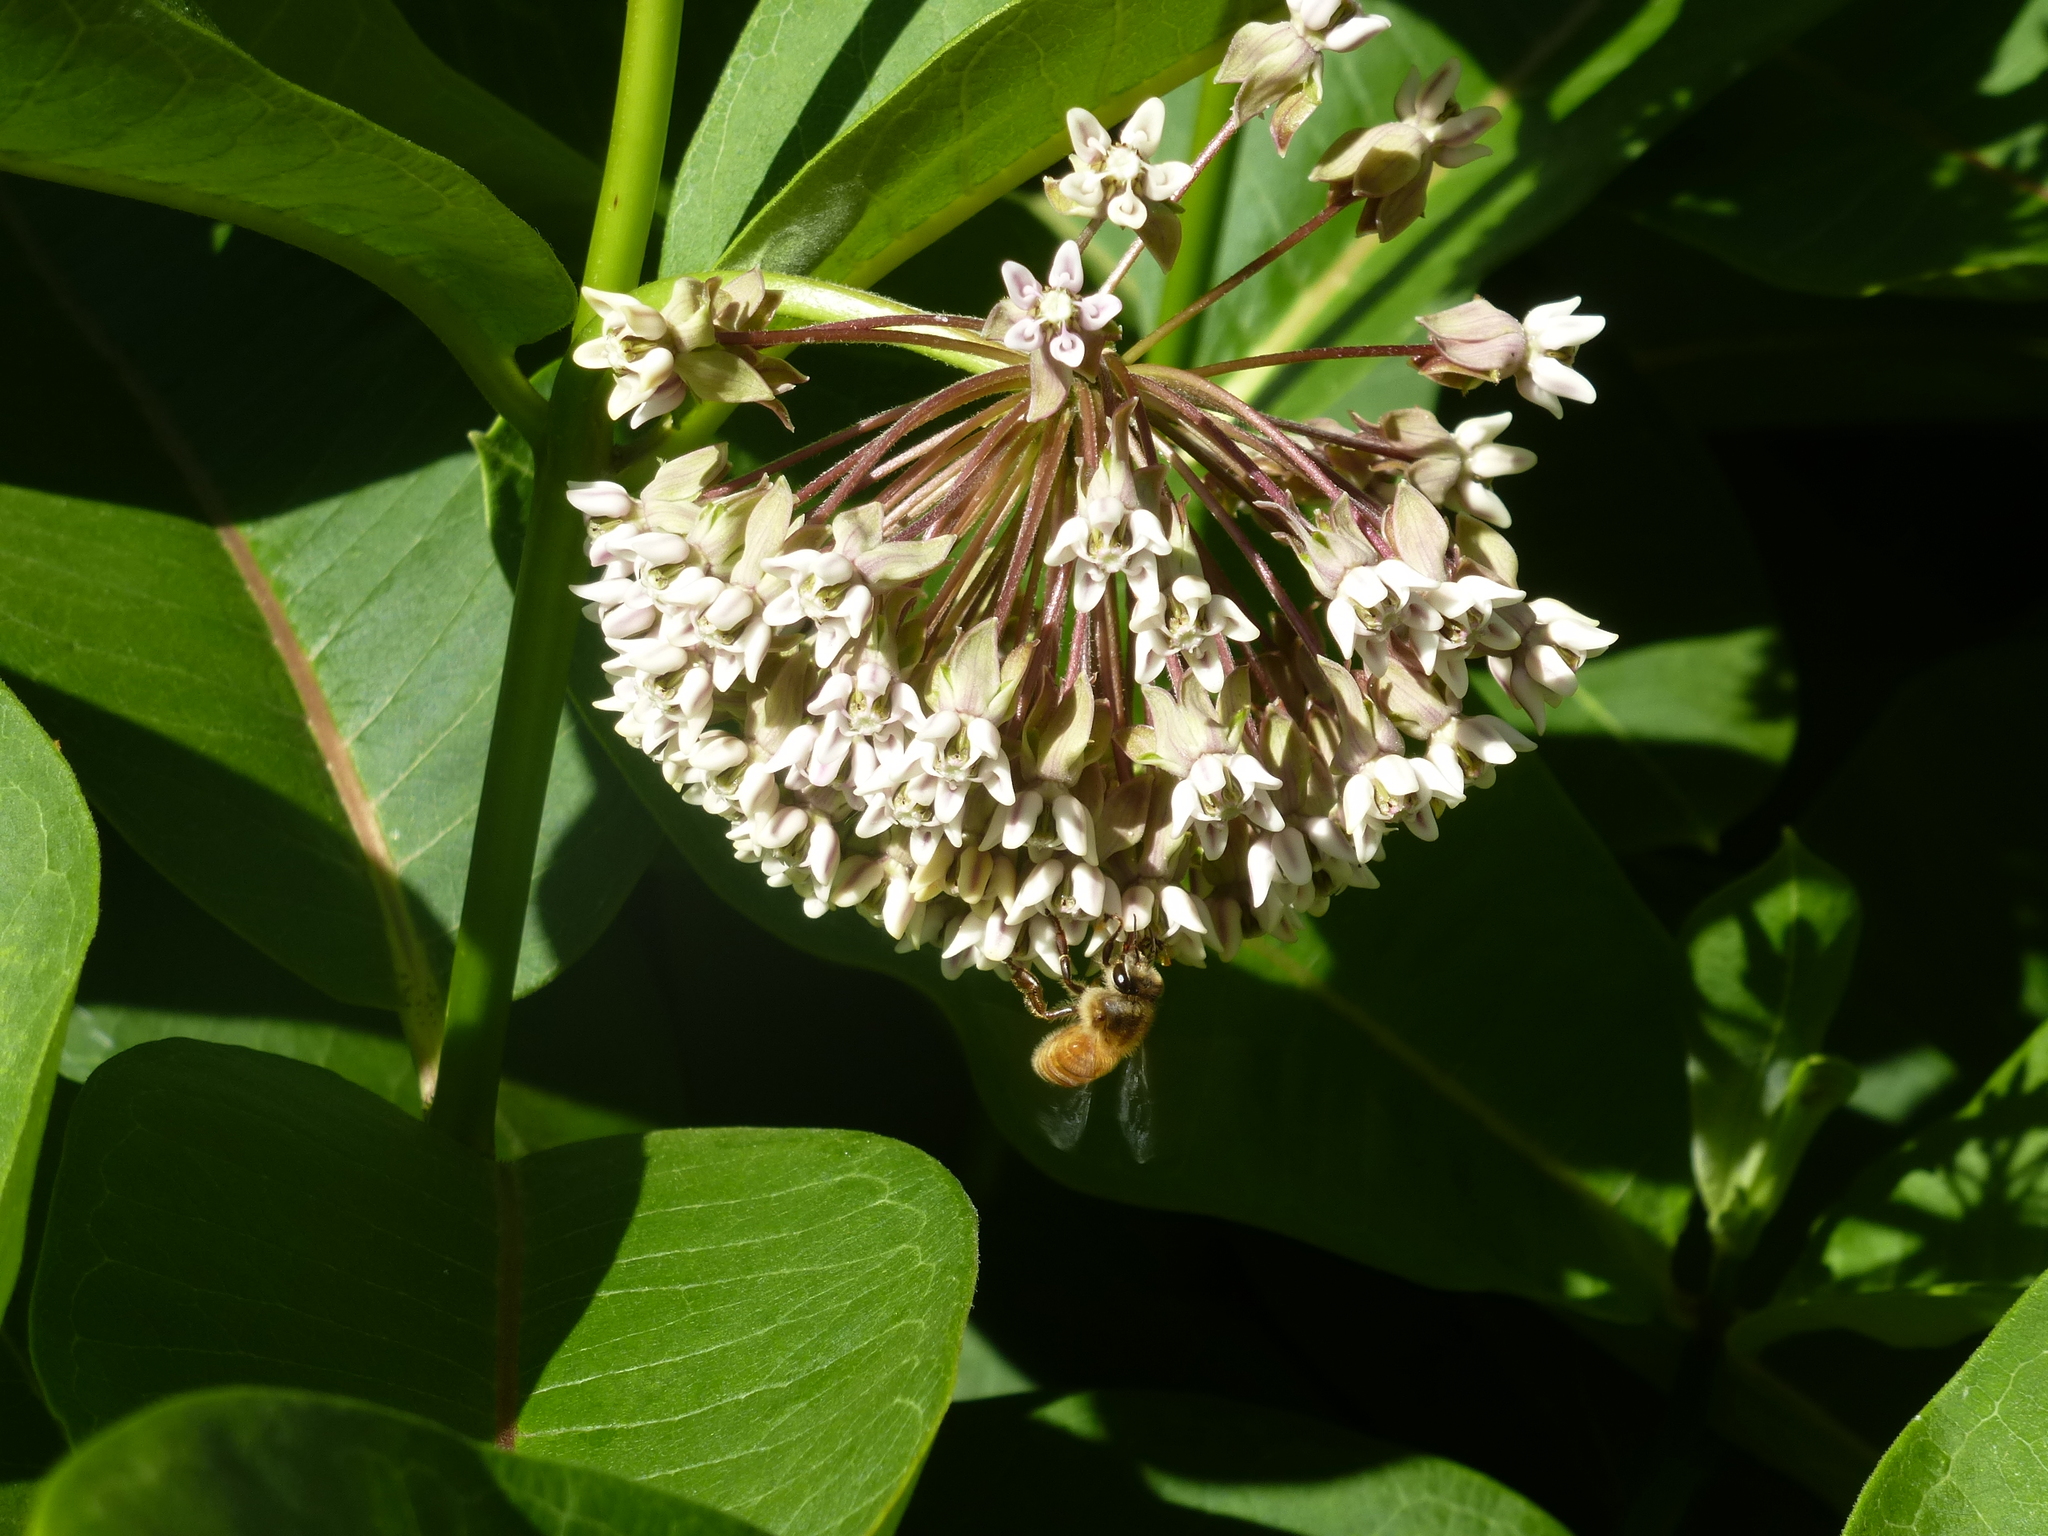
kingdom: Animalia
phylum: Arthropoda
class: Insecta
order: Hymenoptera
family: Apidae
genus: Apis
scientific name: Apis mellifera
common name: Honey bee
